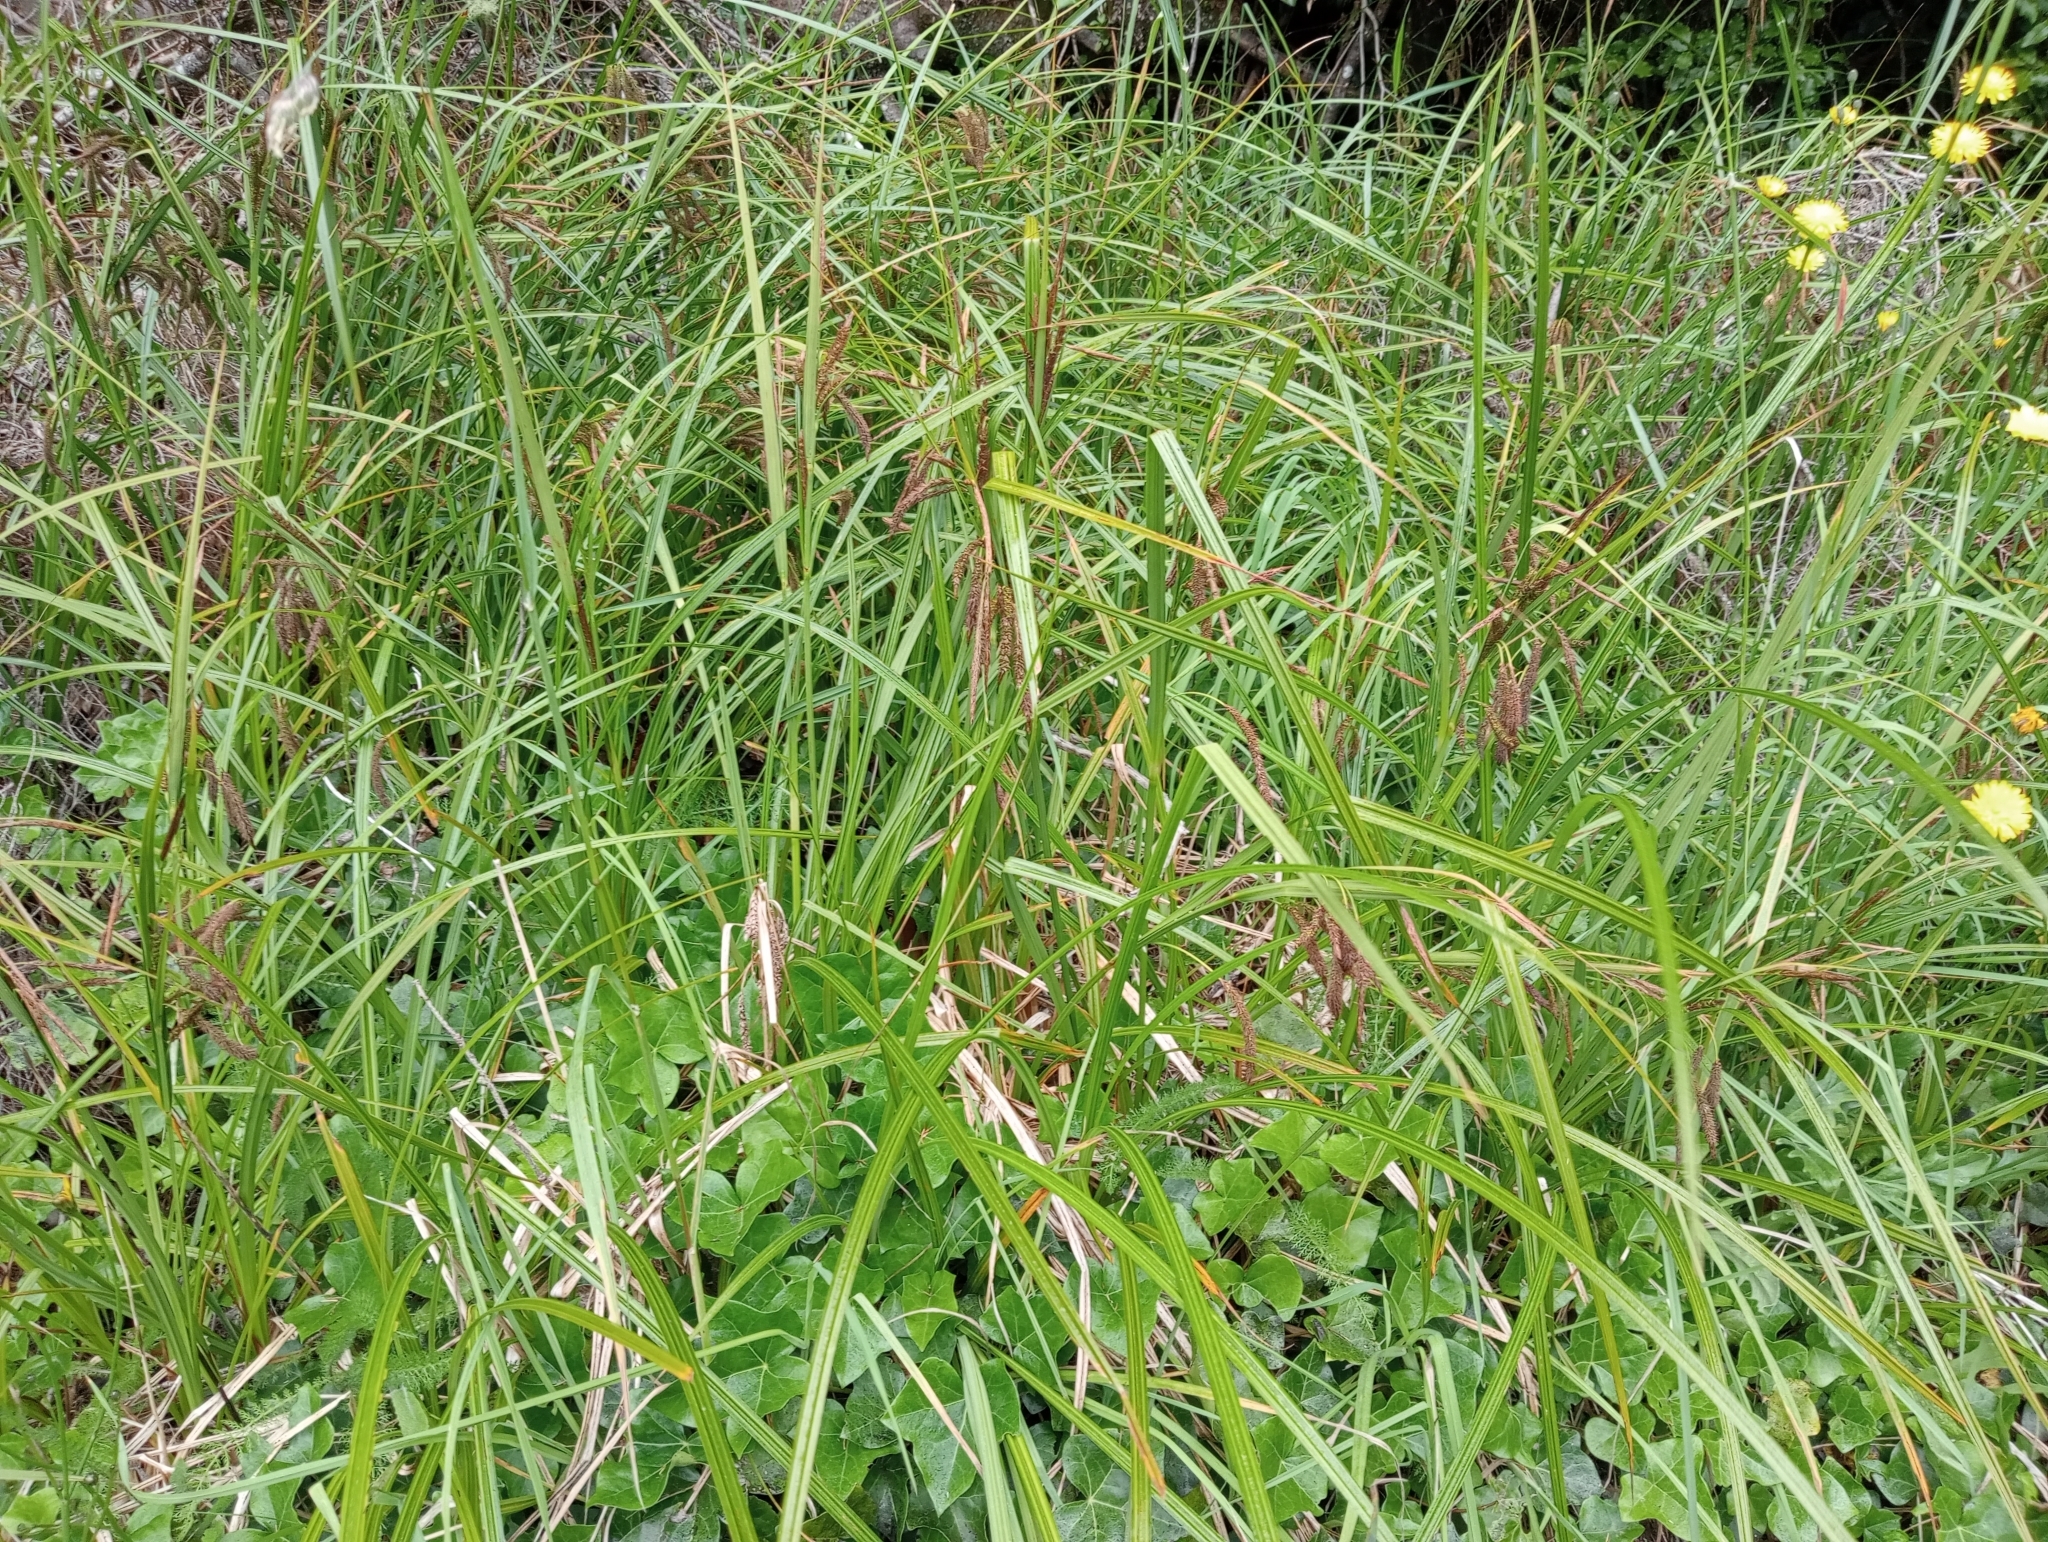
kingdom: Plantae
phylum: Tracheophyta
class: Liliopsida
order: Poales
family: Cyperaceae
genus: Carex
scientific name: Carex geminata
